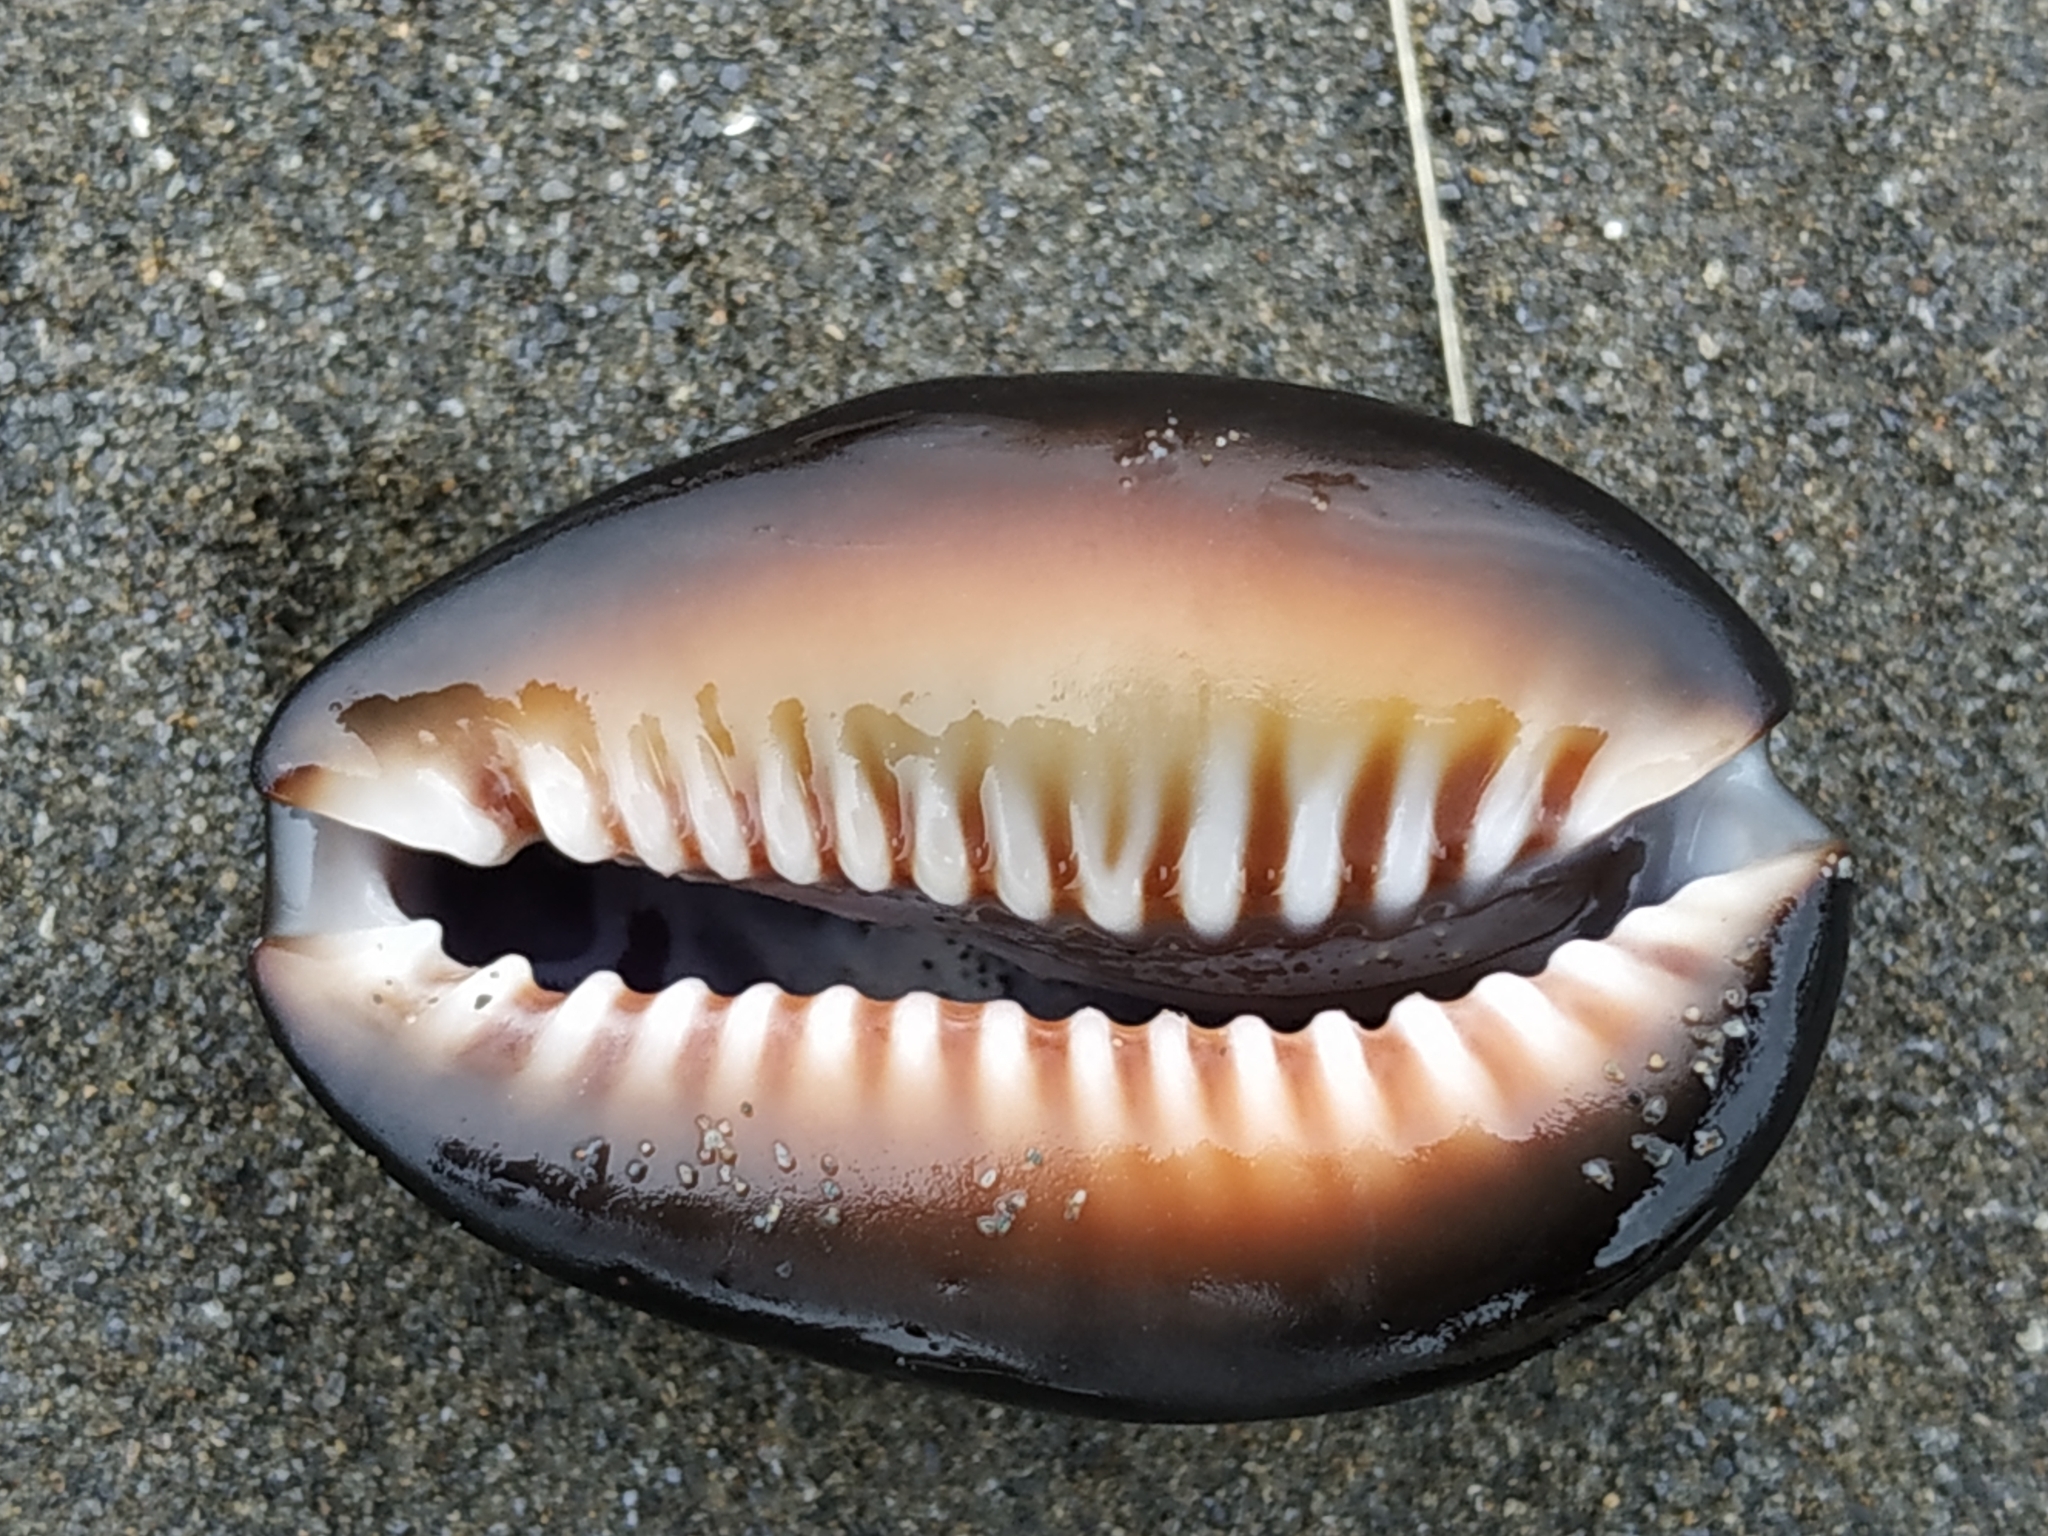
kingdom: Animalia
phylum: Mollusca
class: Gastropoda
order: Littorinimorpha
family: Cypraeidae
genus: Monetaria
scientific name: Monetaria caputserpentis
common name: Serpent's head cowrie
